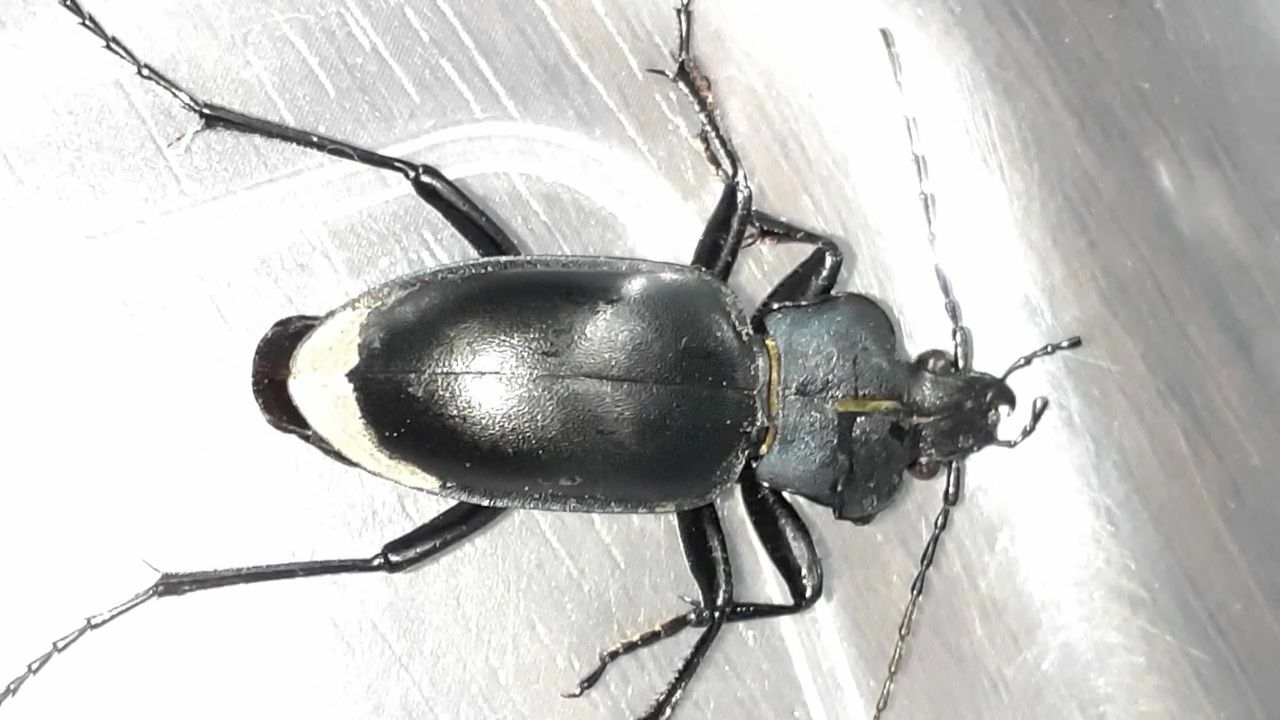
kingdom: Animalia
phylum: Arthropoda
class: Insecta
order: Coleoptera
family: Carabidae
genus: Carabus
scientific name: Carabus glabratus
